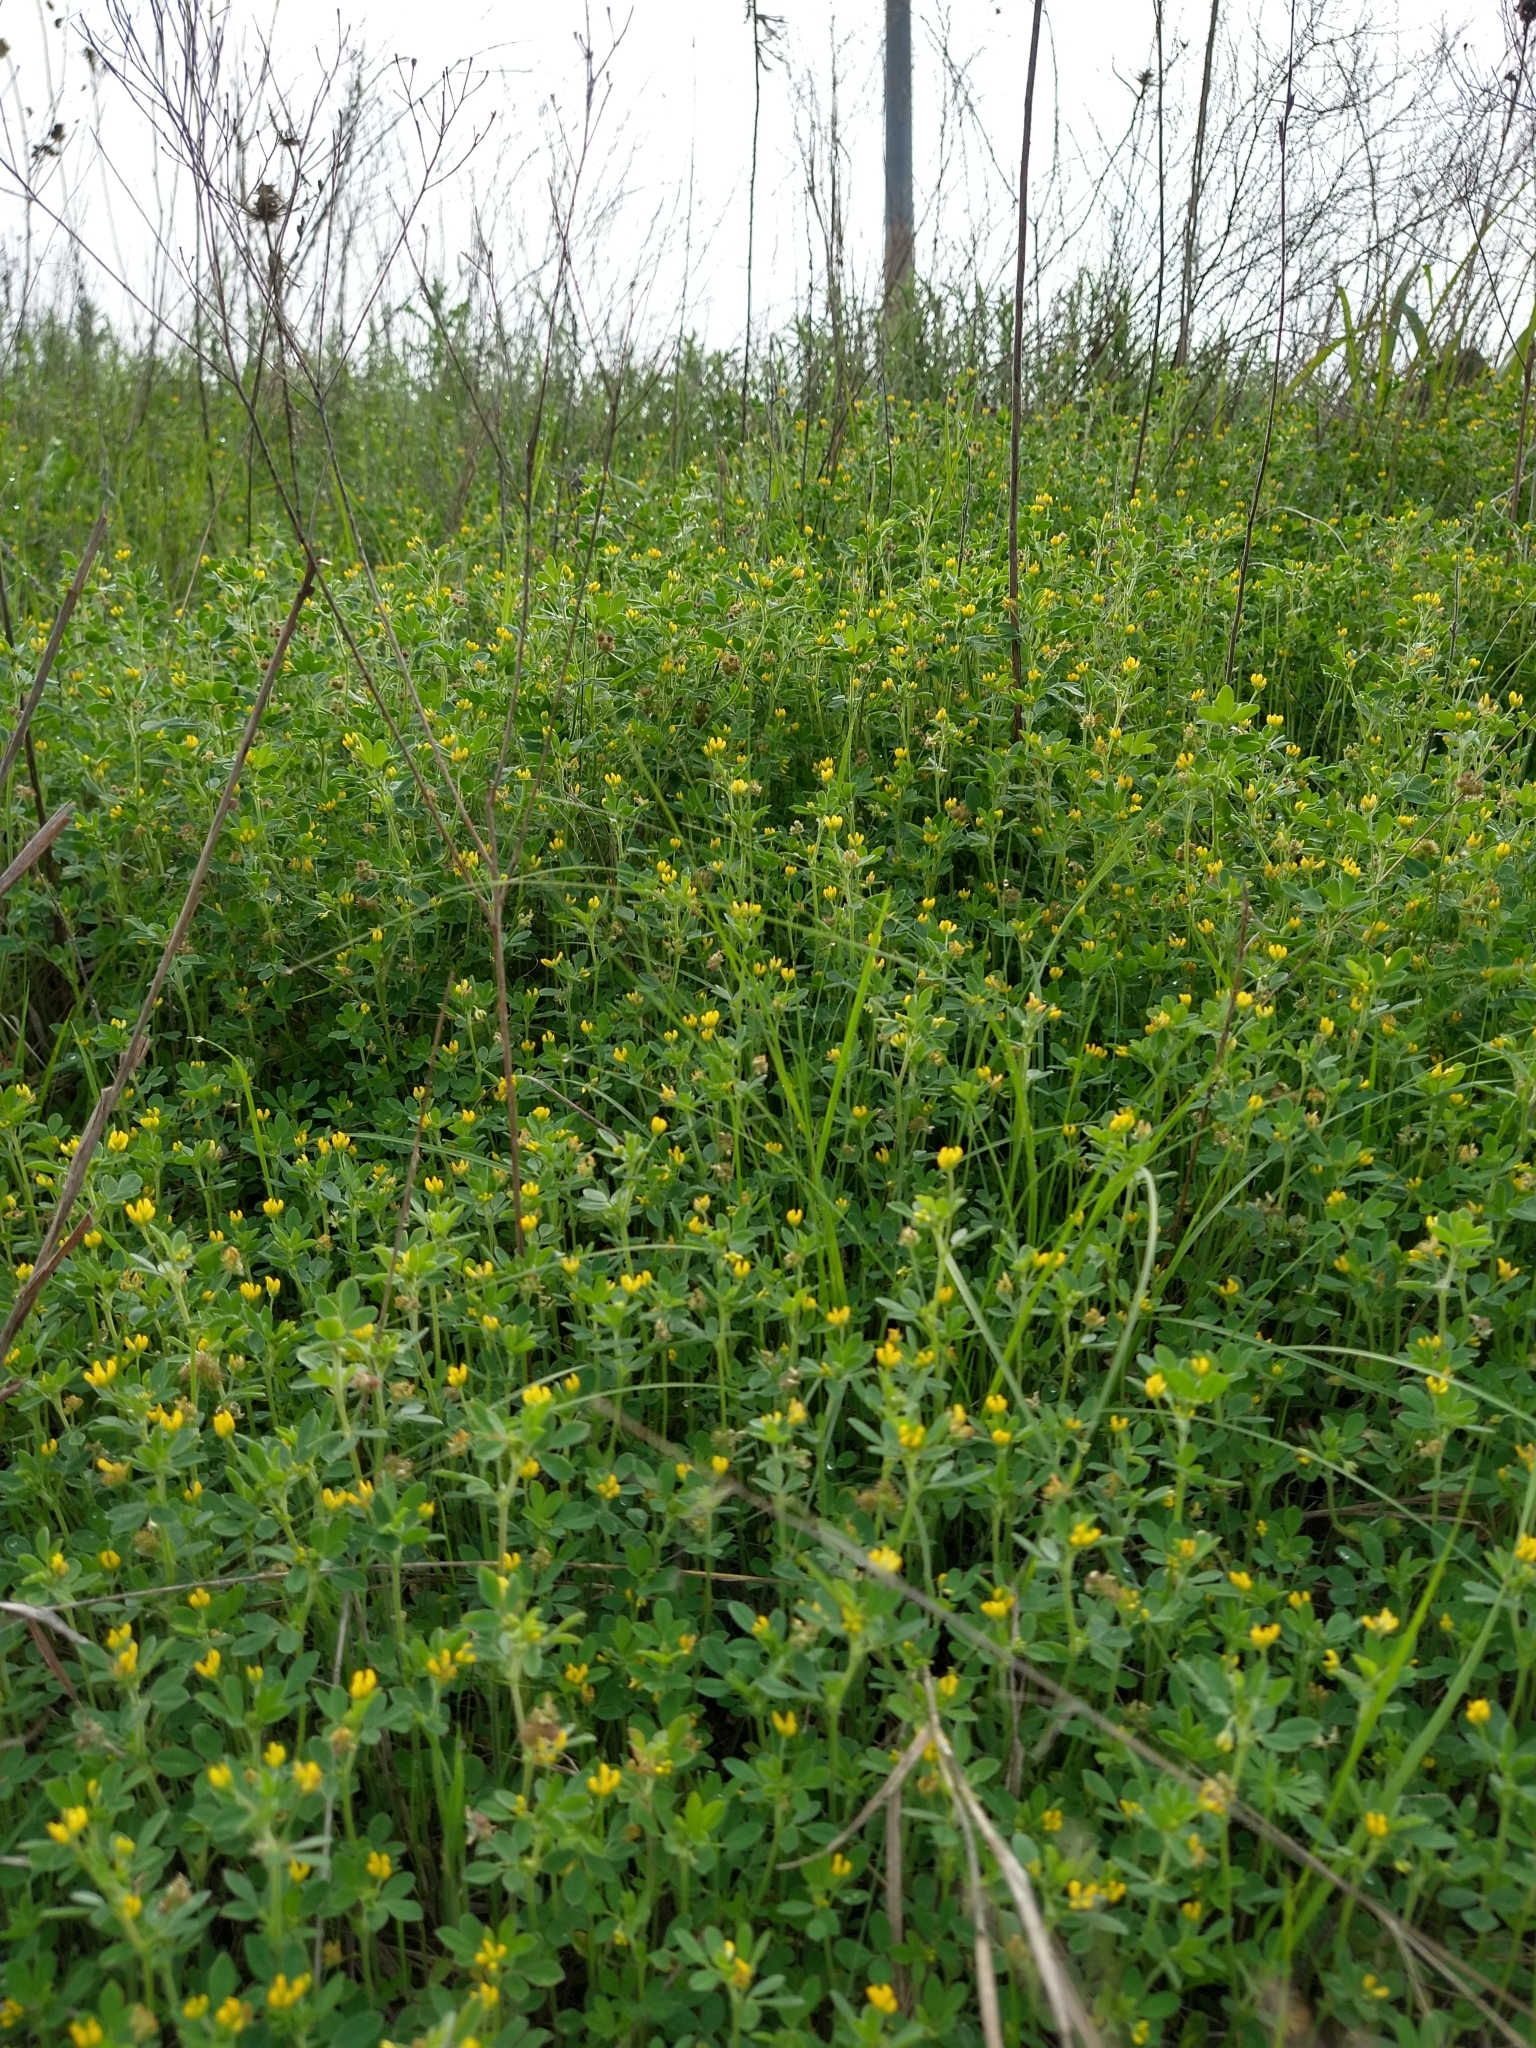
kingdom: Plantae
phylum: Tracheophyta
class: Magnoliopsida
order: Fabales
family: Fabaceae
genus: Medicago
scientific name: Medicago minima
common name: Little bur-clover
